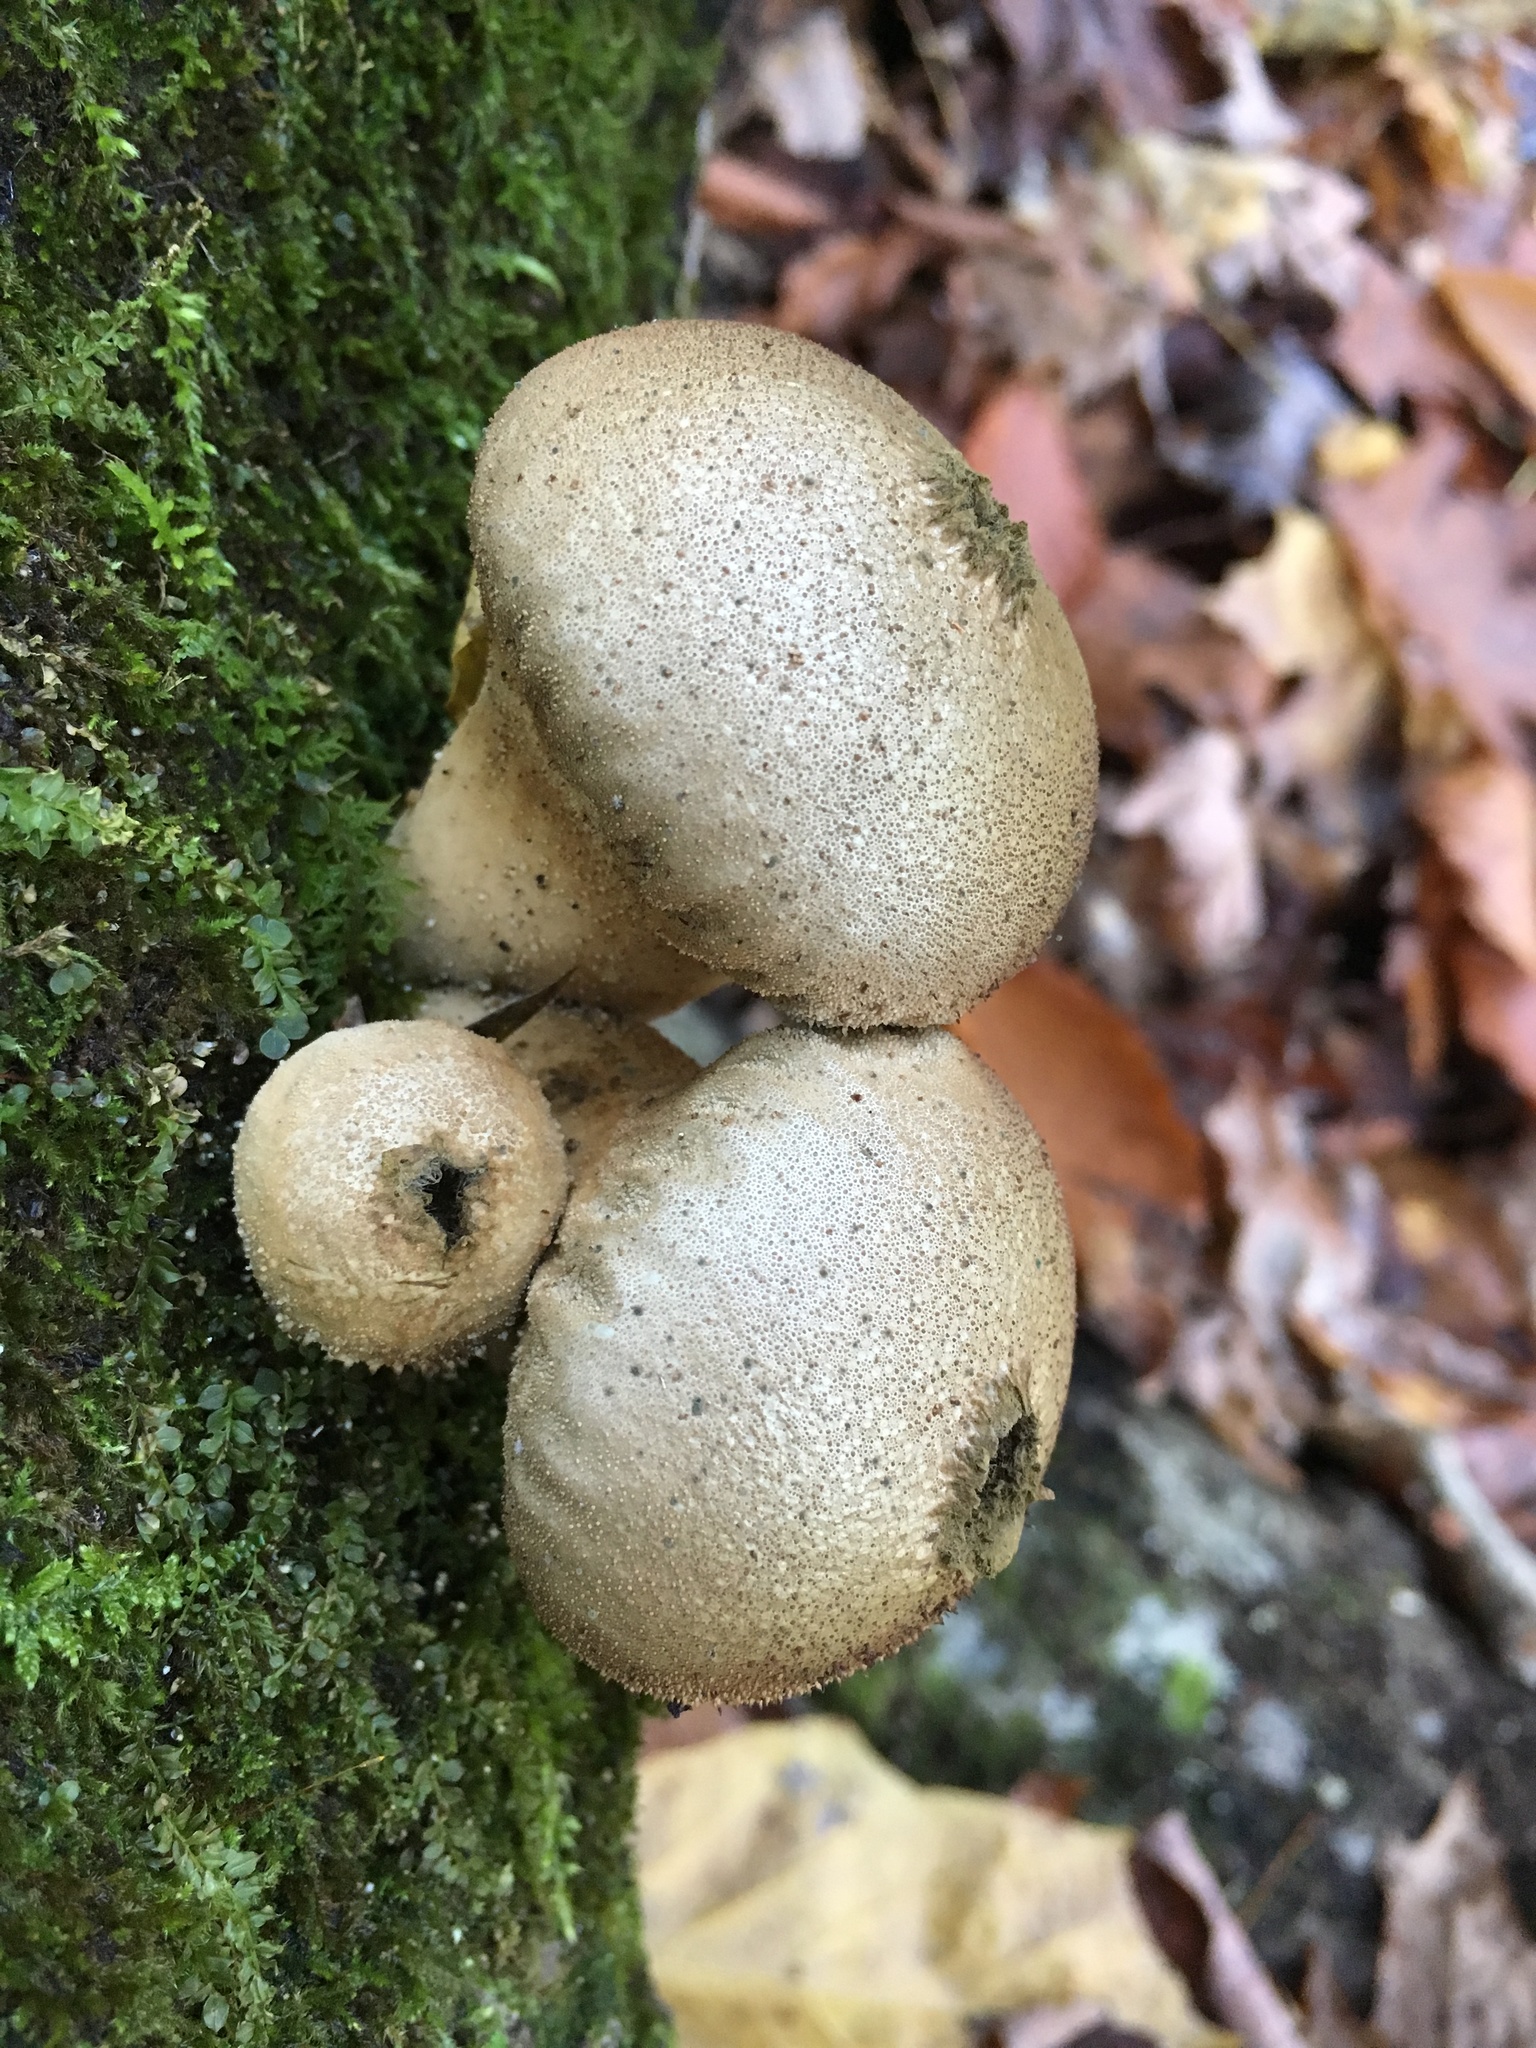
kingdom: Fungi
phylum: Basidiomycota
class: Agaricomycetes
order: Agaricales
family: Lycoperdaceae
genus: Apioperdon
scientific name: Apioperdon pyriforme
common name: Pear-shaped puffball
